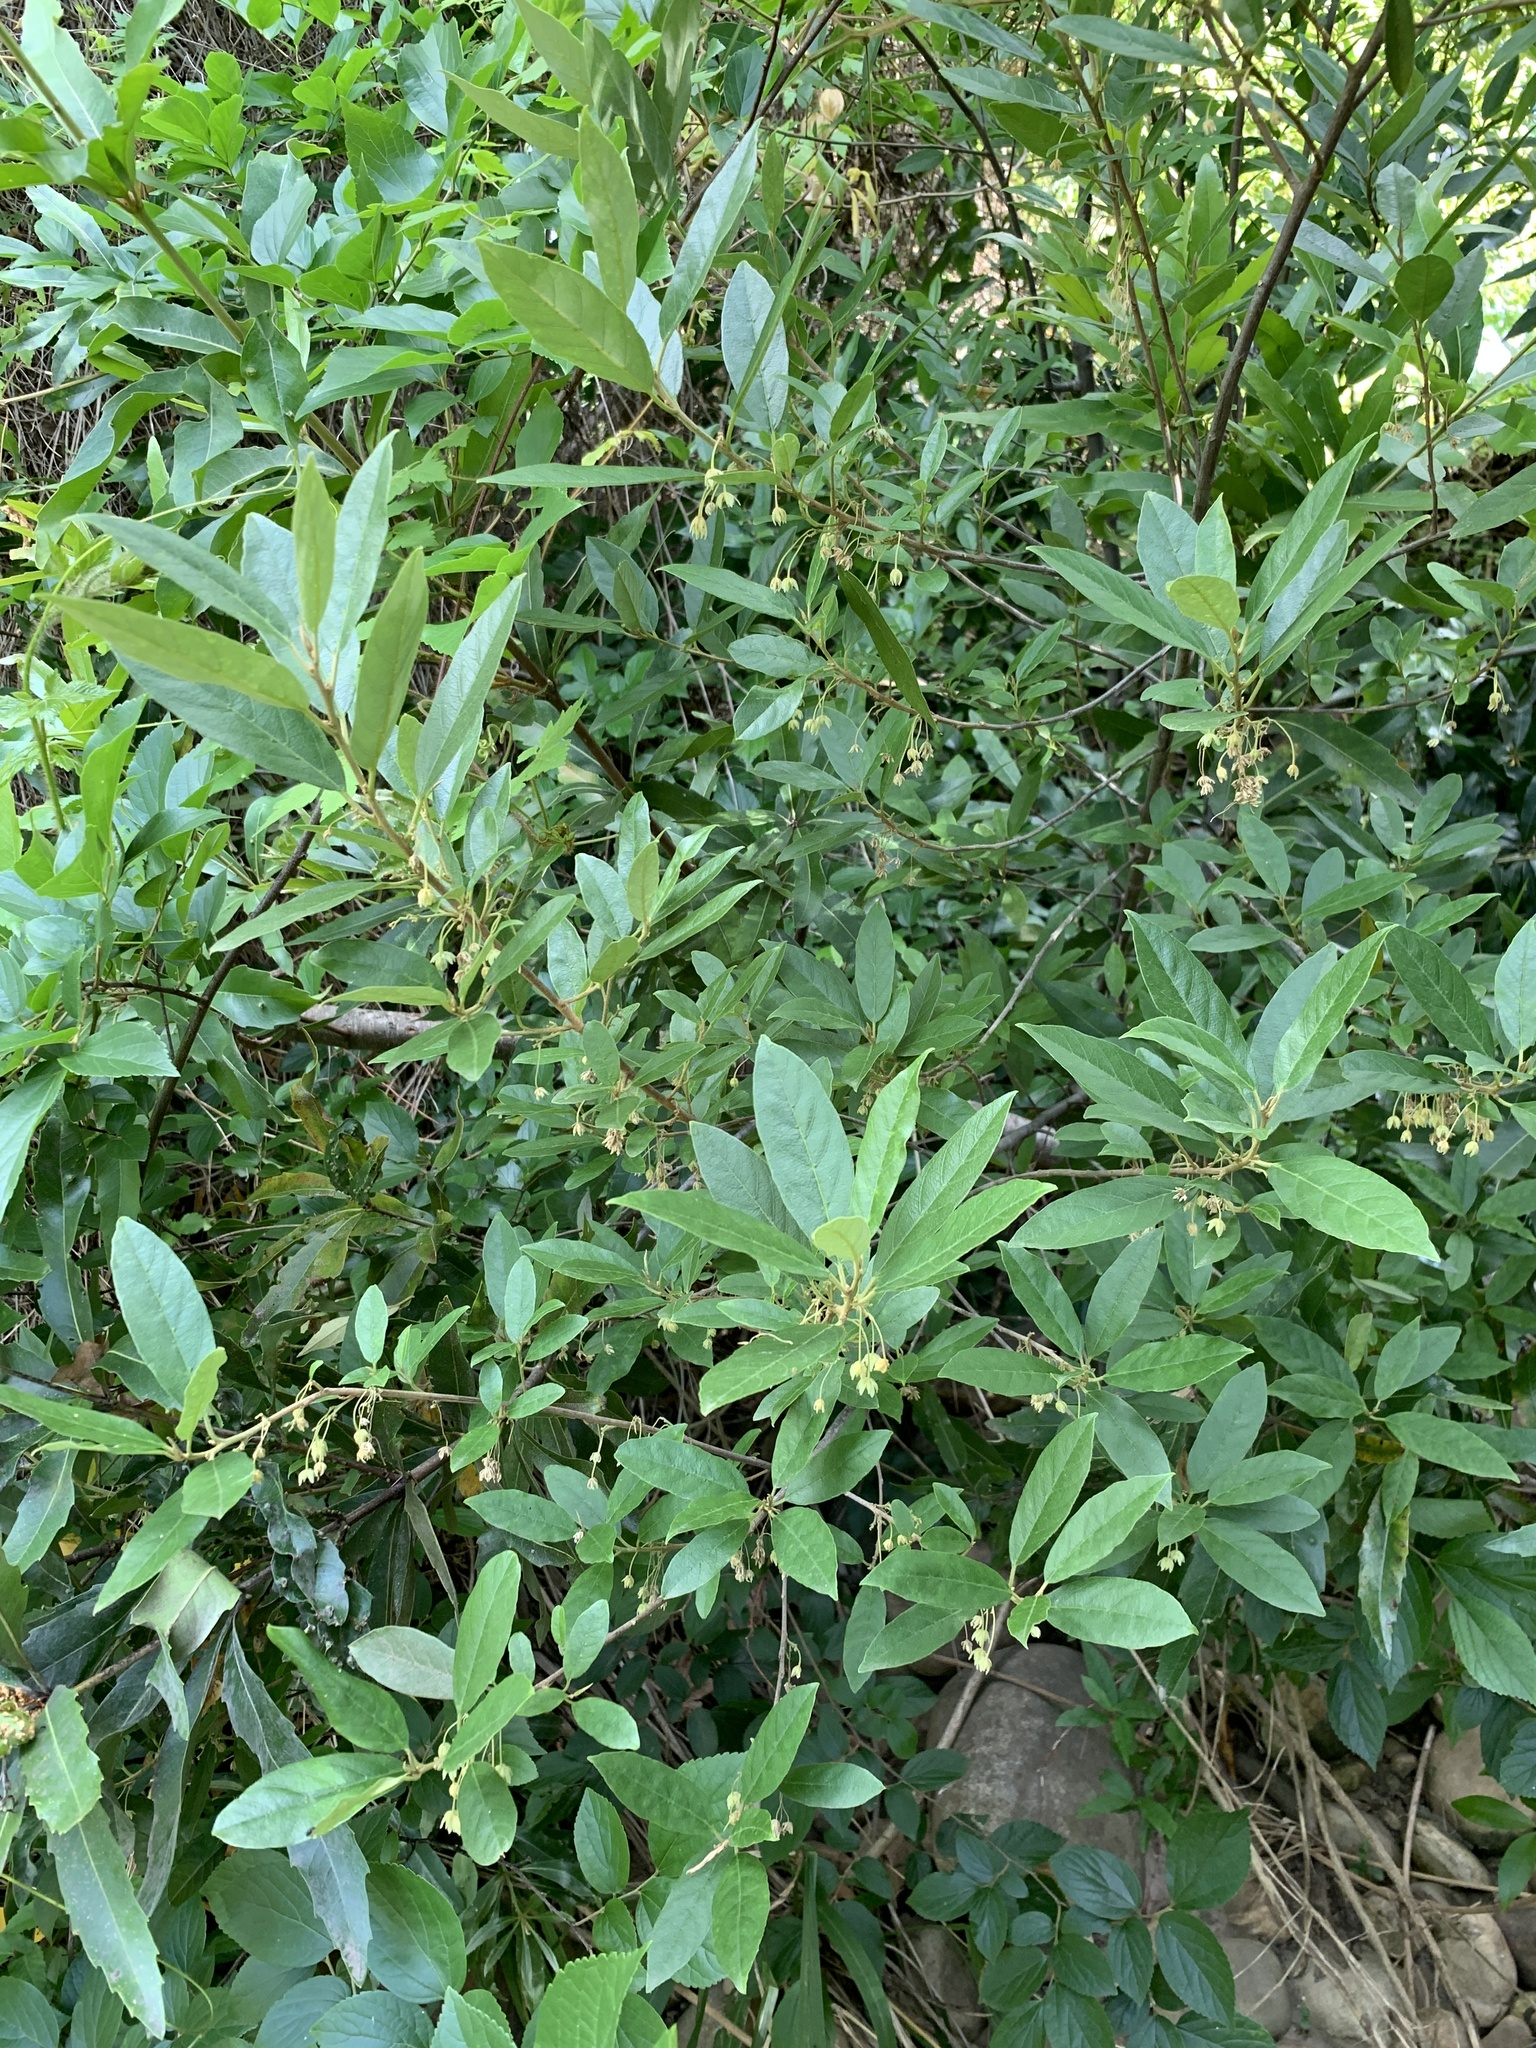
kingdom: Plantae
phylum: Tracheophyta
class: Magnoliopsida
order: Malpighiales
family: Achariaceae
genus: Kiggelaria
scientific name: Kiggelaria africana
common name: Wild peach
